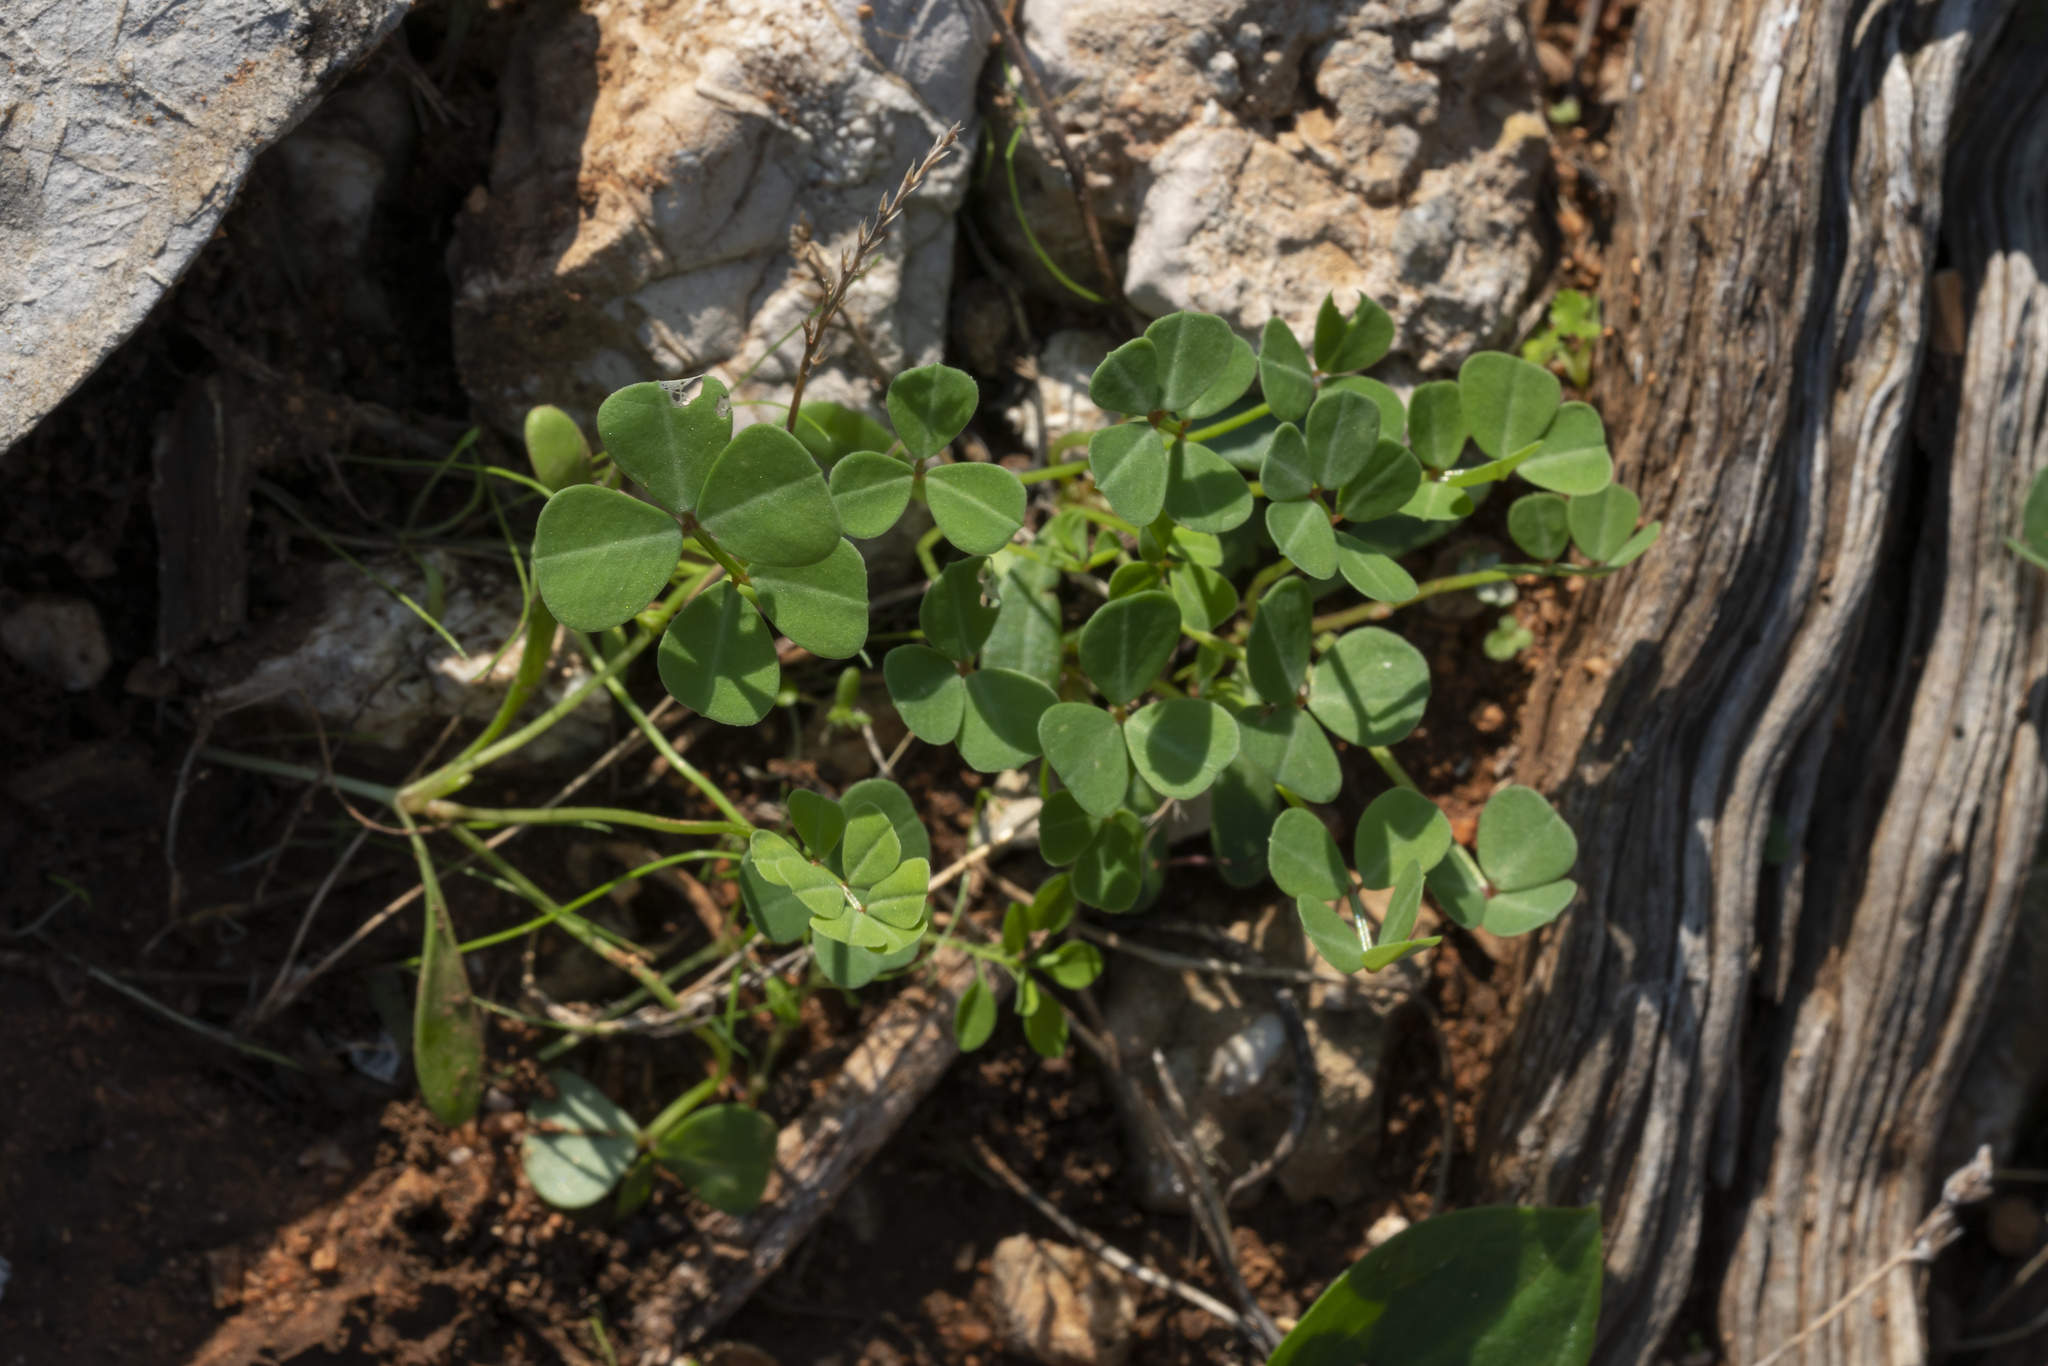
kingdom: Animalia
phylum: Arthropoda
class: Insecta
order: Orthoptera
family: Romaleidae
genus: Securigera
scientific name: Securigera
